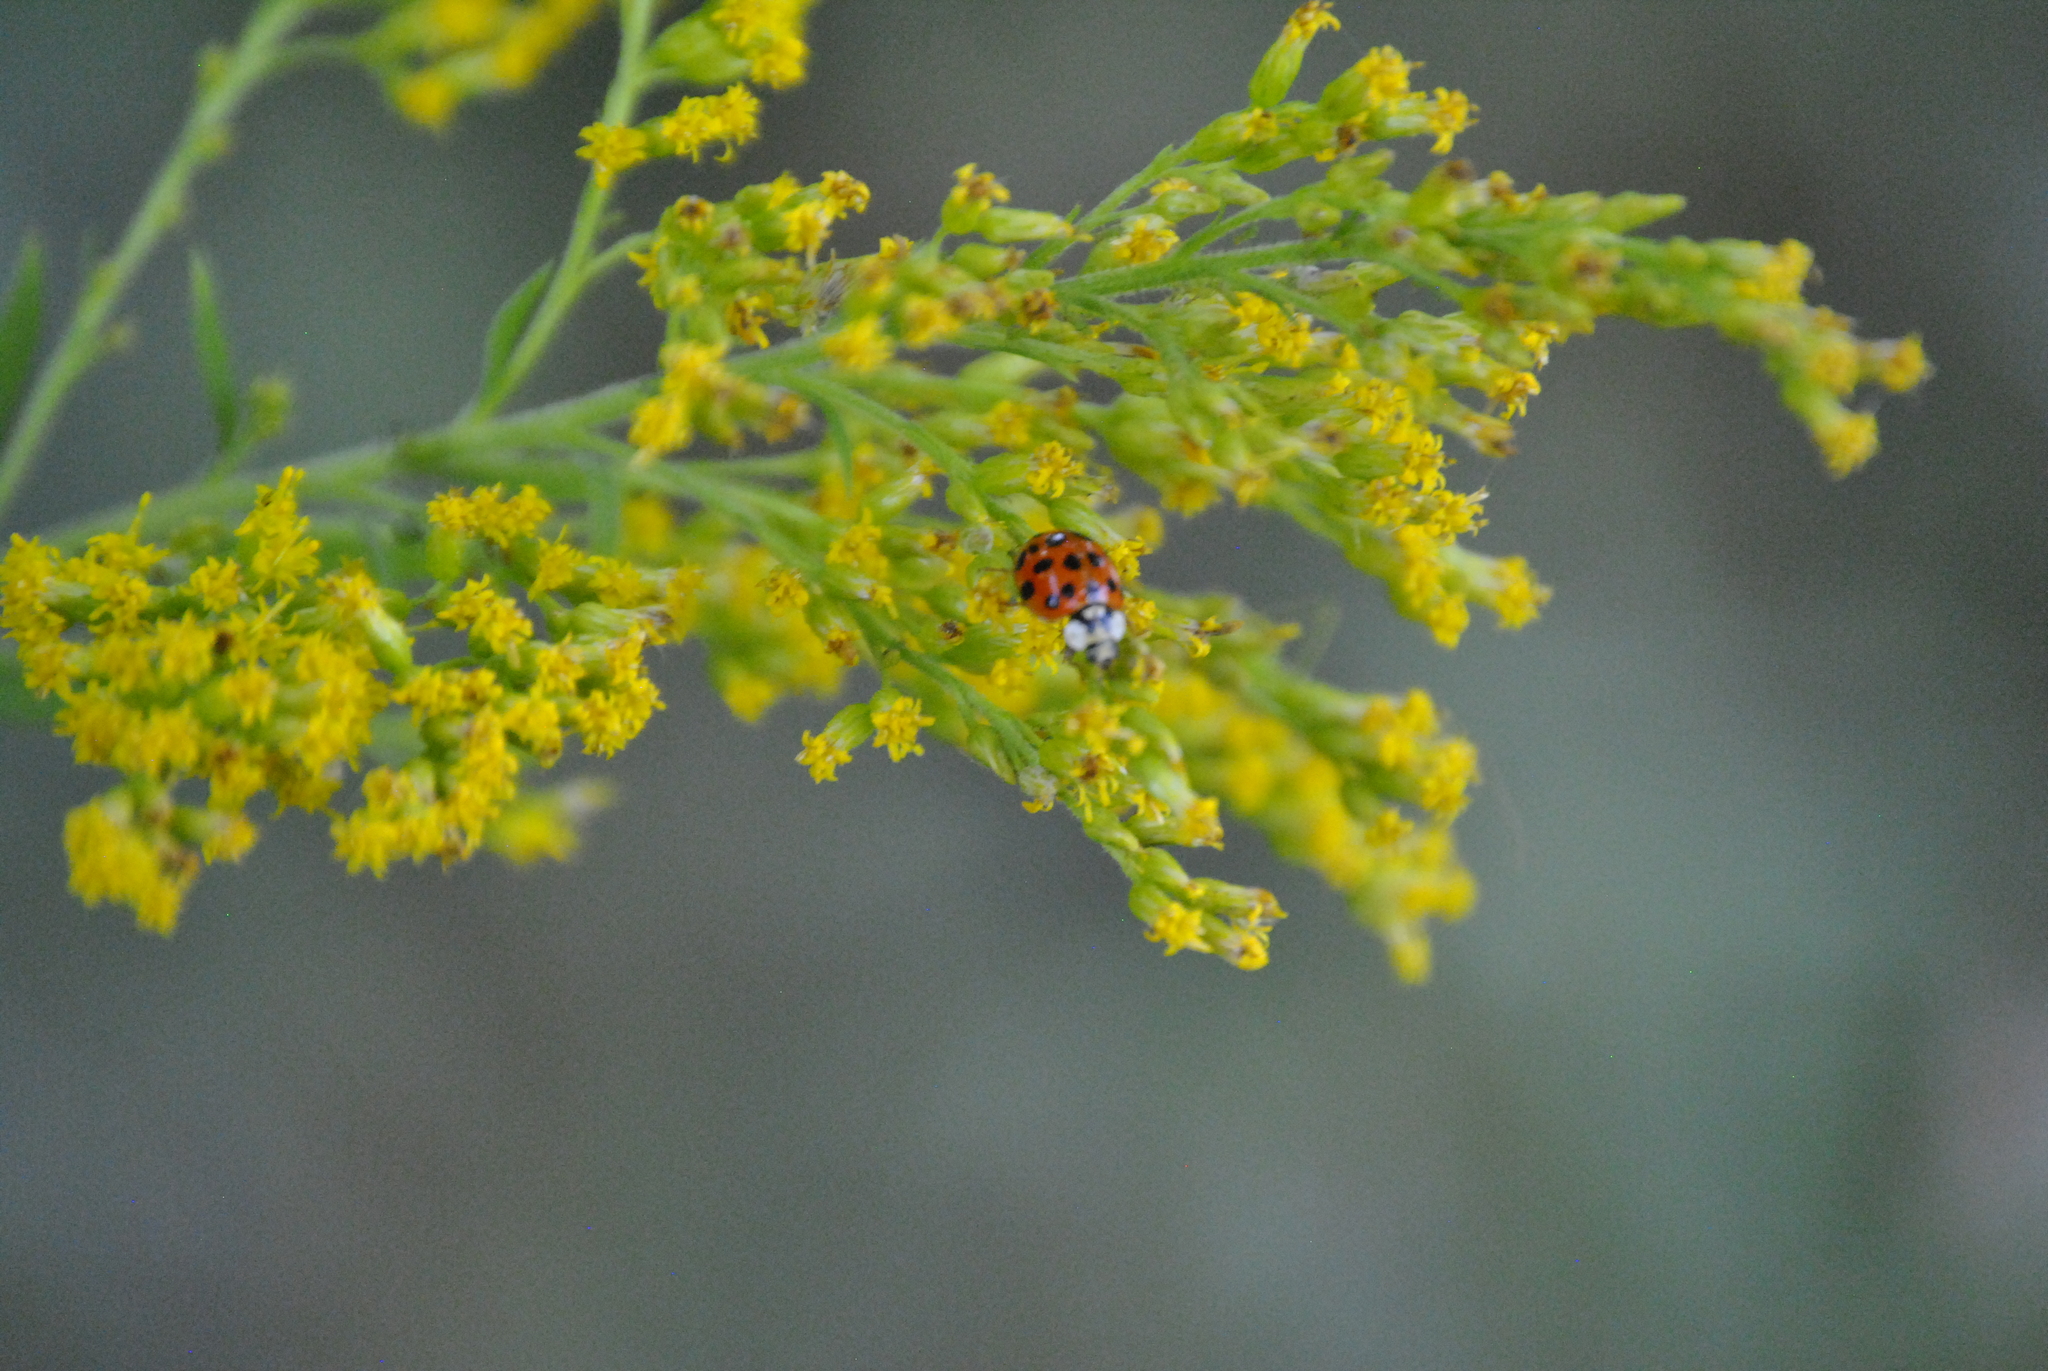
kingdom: Animalia
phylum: Arthropoda
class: Insecta
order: Coleoptera
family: Coccinellidae
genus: Harmonia
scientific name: Harmonia axyridis
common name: Harlequin ladybird
